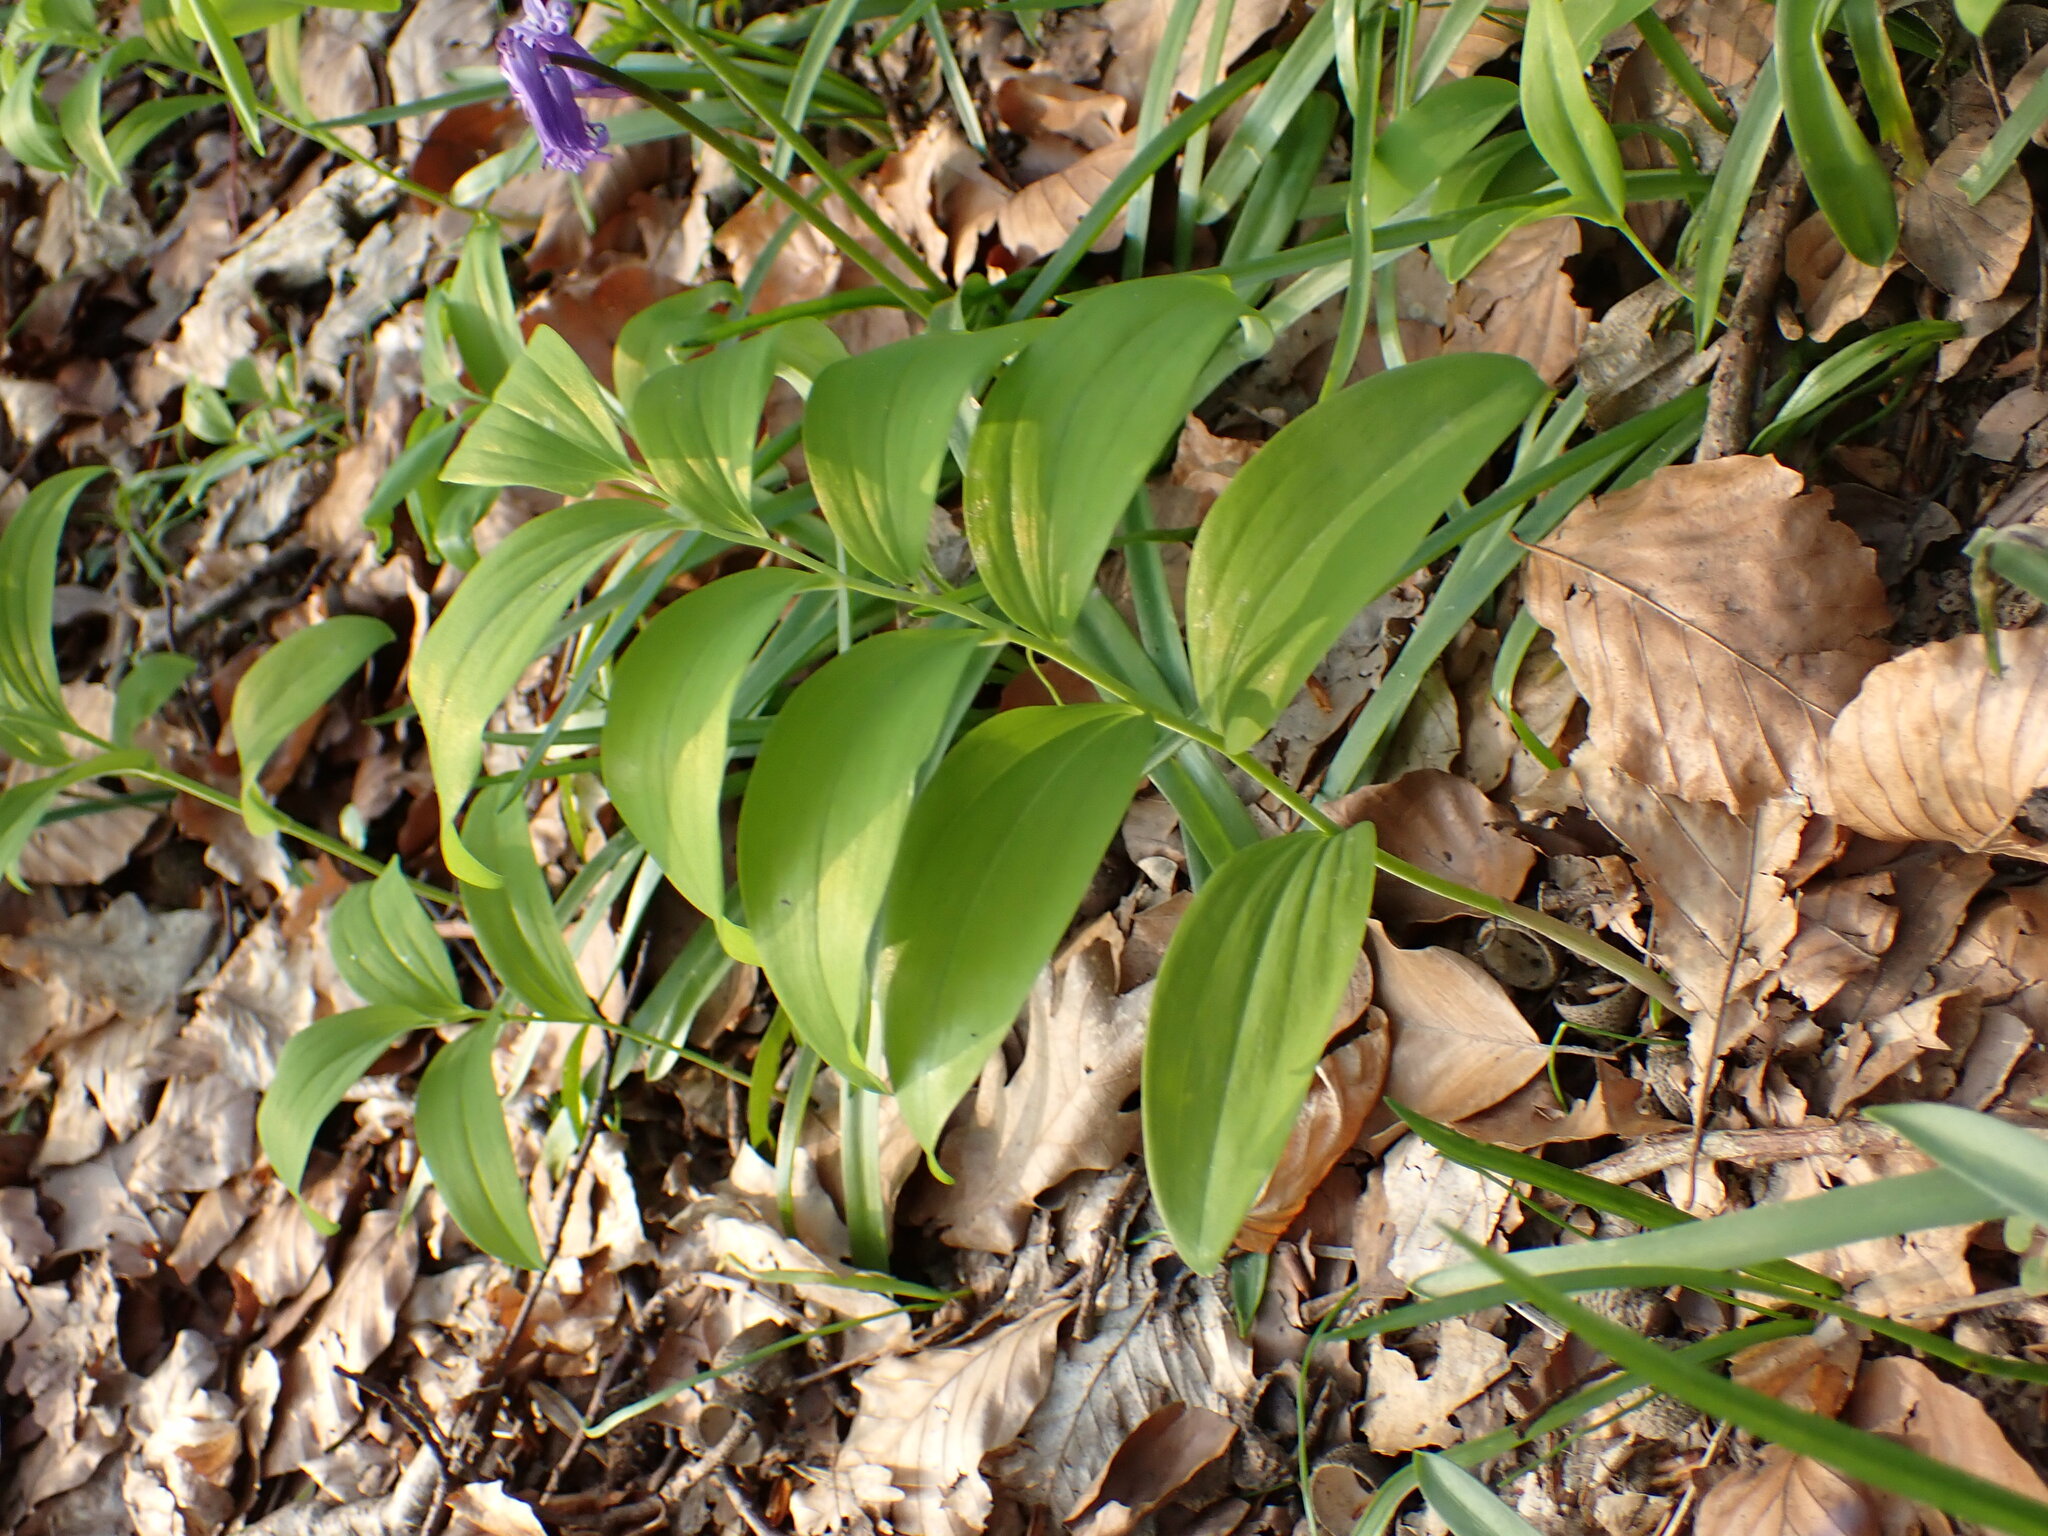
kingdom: Plantae
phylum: Tracheophyta
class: Liliopsida
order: Asparagales
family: Asparagaceae
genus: Polygonatum
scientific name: Polygonatum multiflorum
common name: Solomon's-seal
